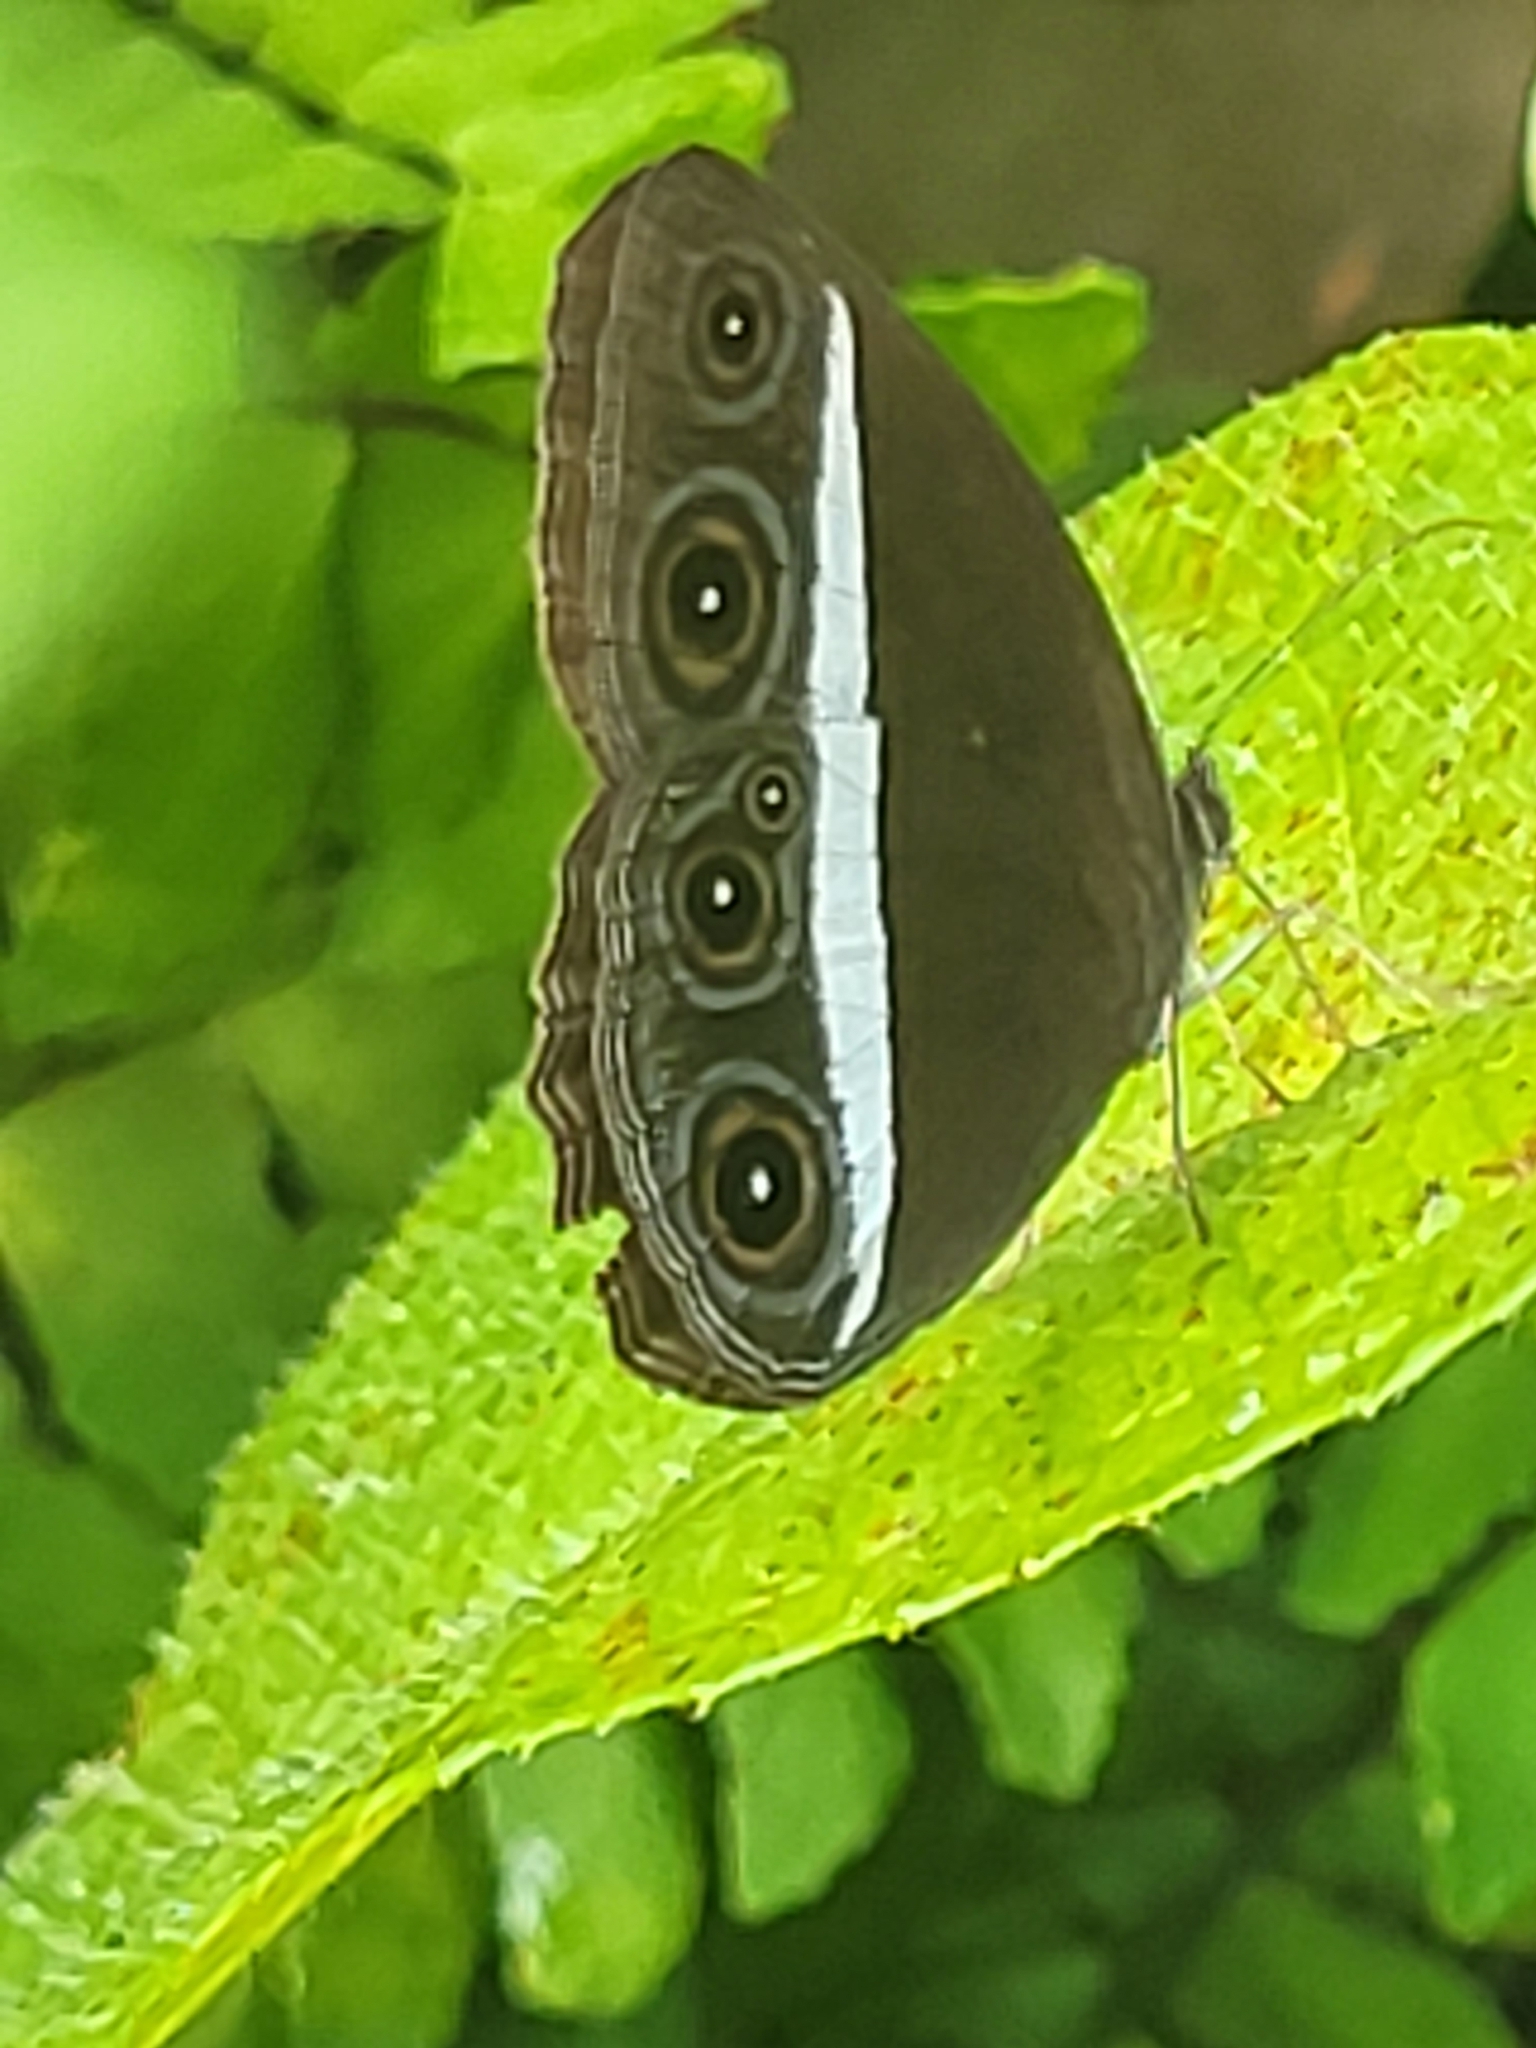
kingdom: Animalia
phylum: Arthropoda
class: Insecta
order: Lepidoptera
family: Nymphalidae
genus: Orsotriaena
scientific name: Orsotriaena medus
